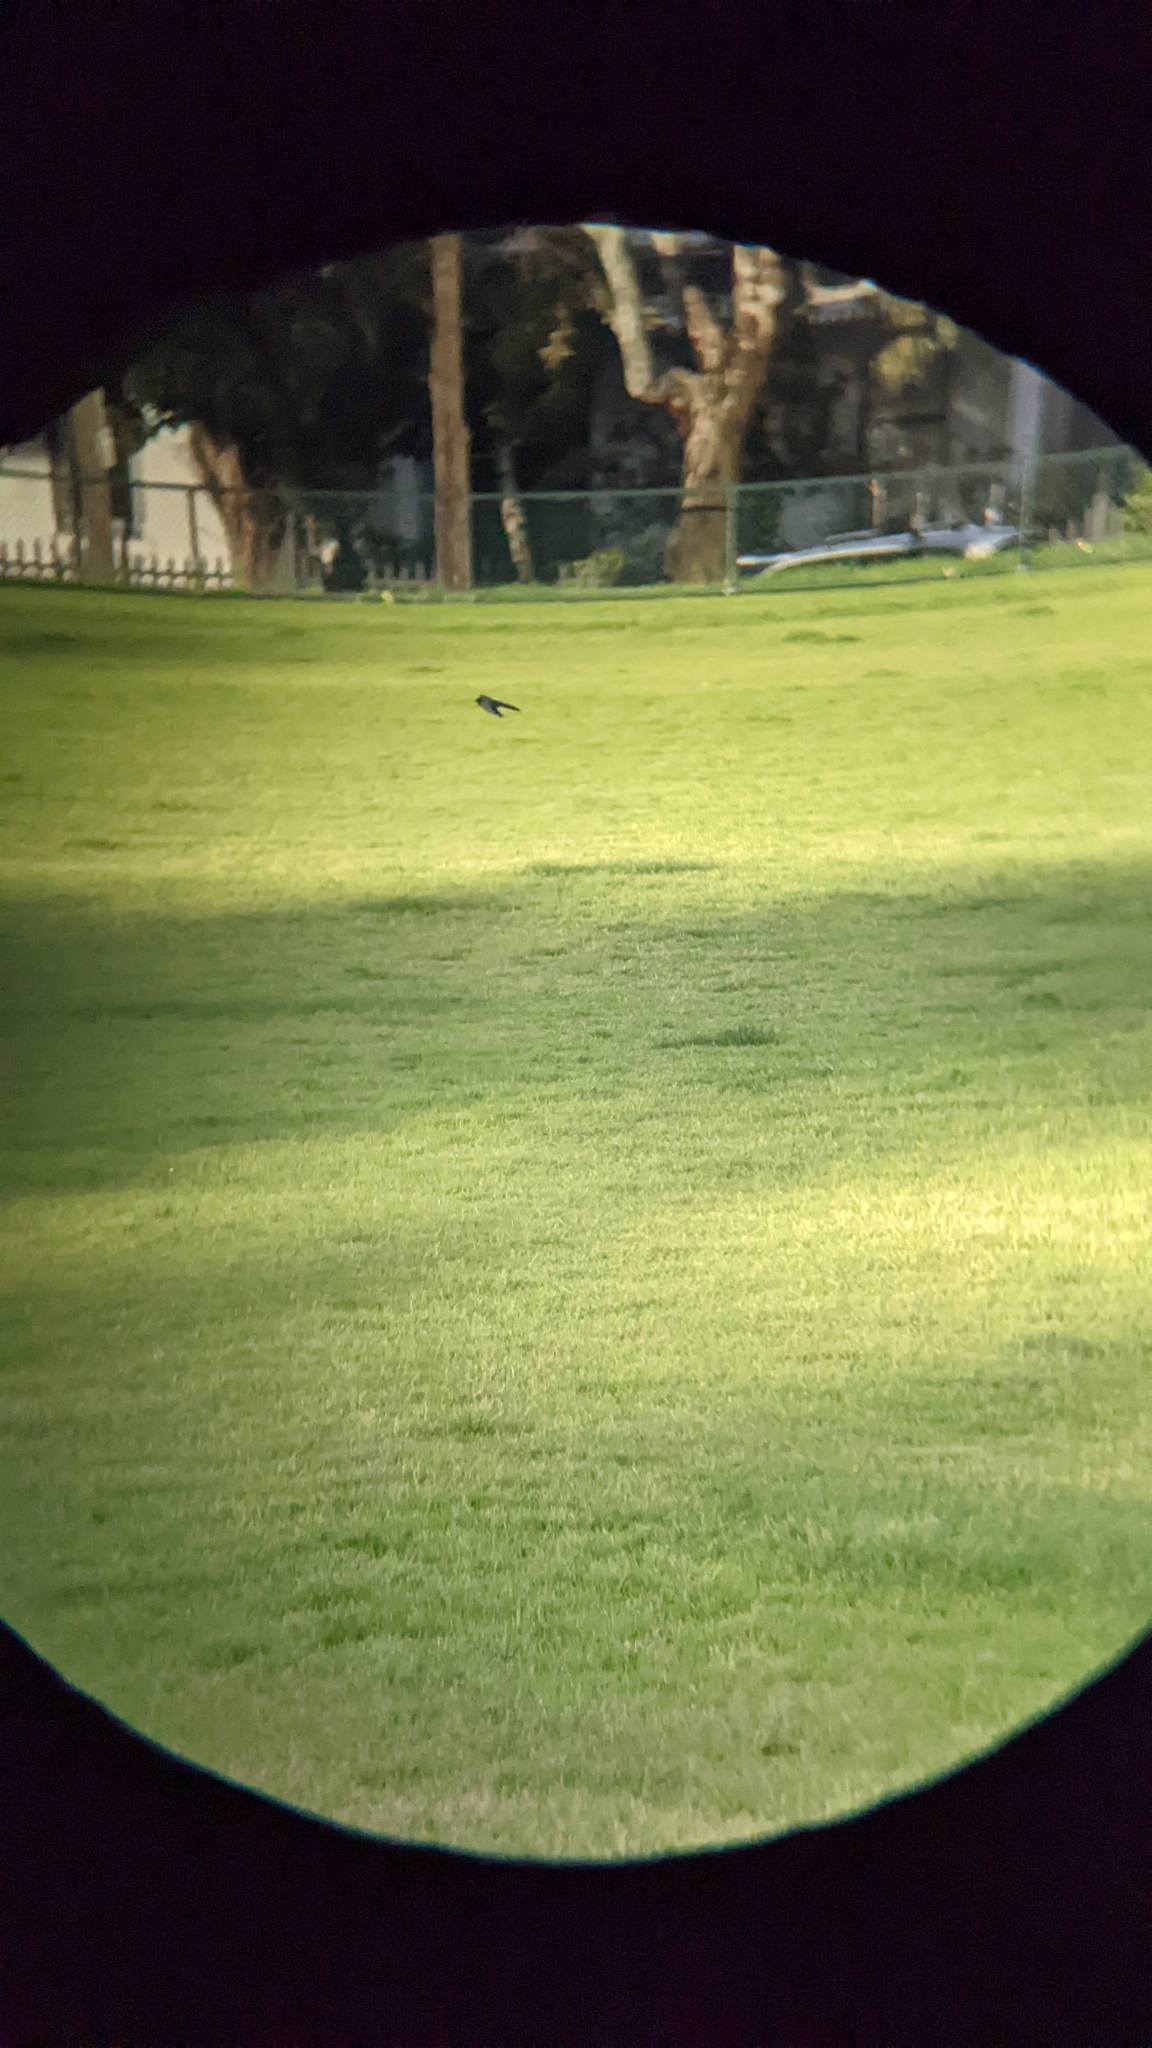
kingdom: Animalia
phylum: Chordata
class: Aves
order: Passeriformes
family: Hirundinidae
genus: Hirundo
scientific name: Hirundo neoxena
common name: Welcome swallow
